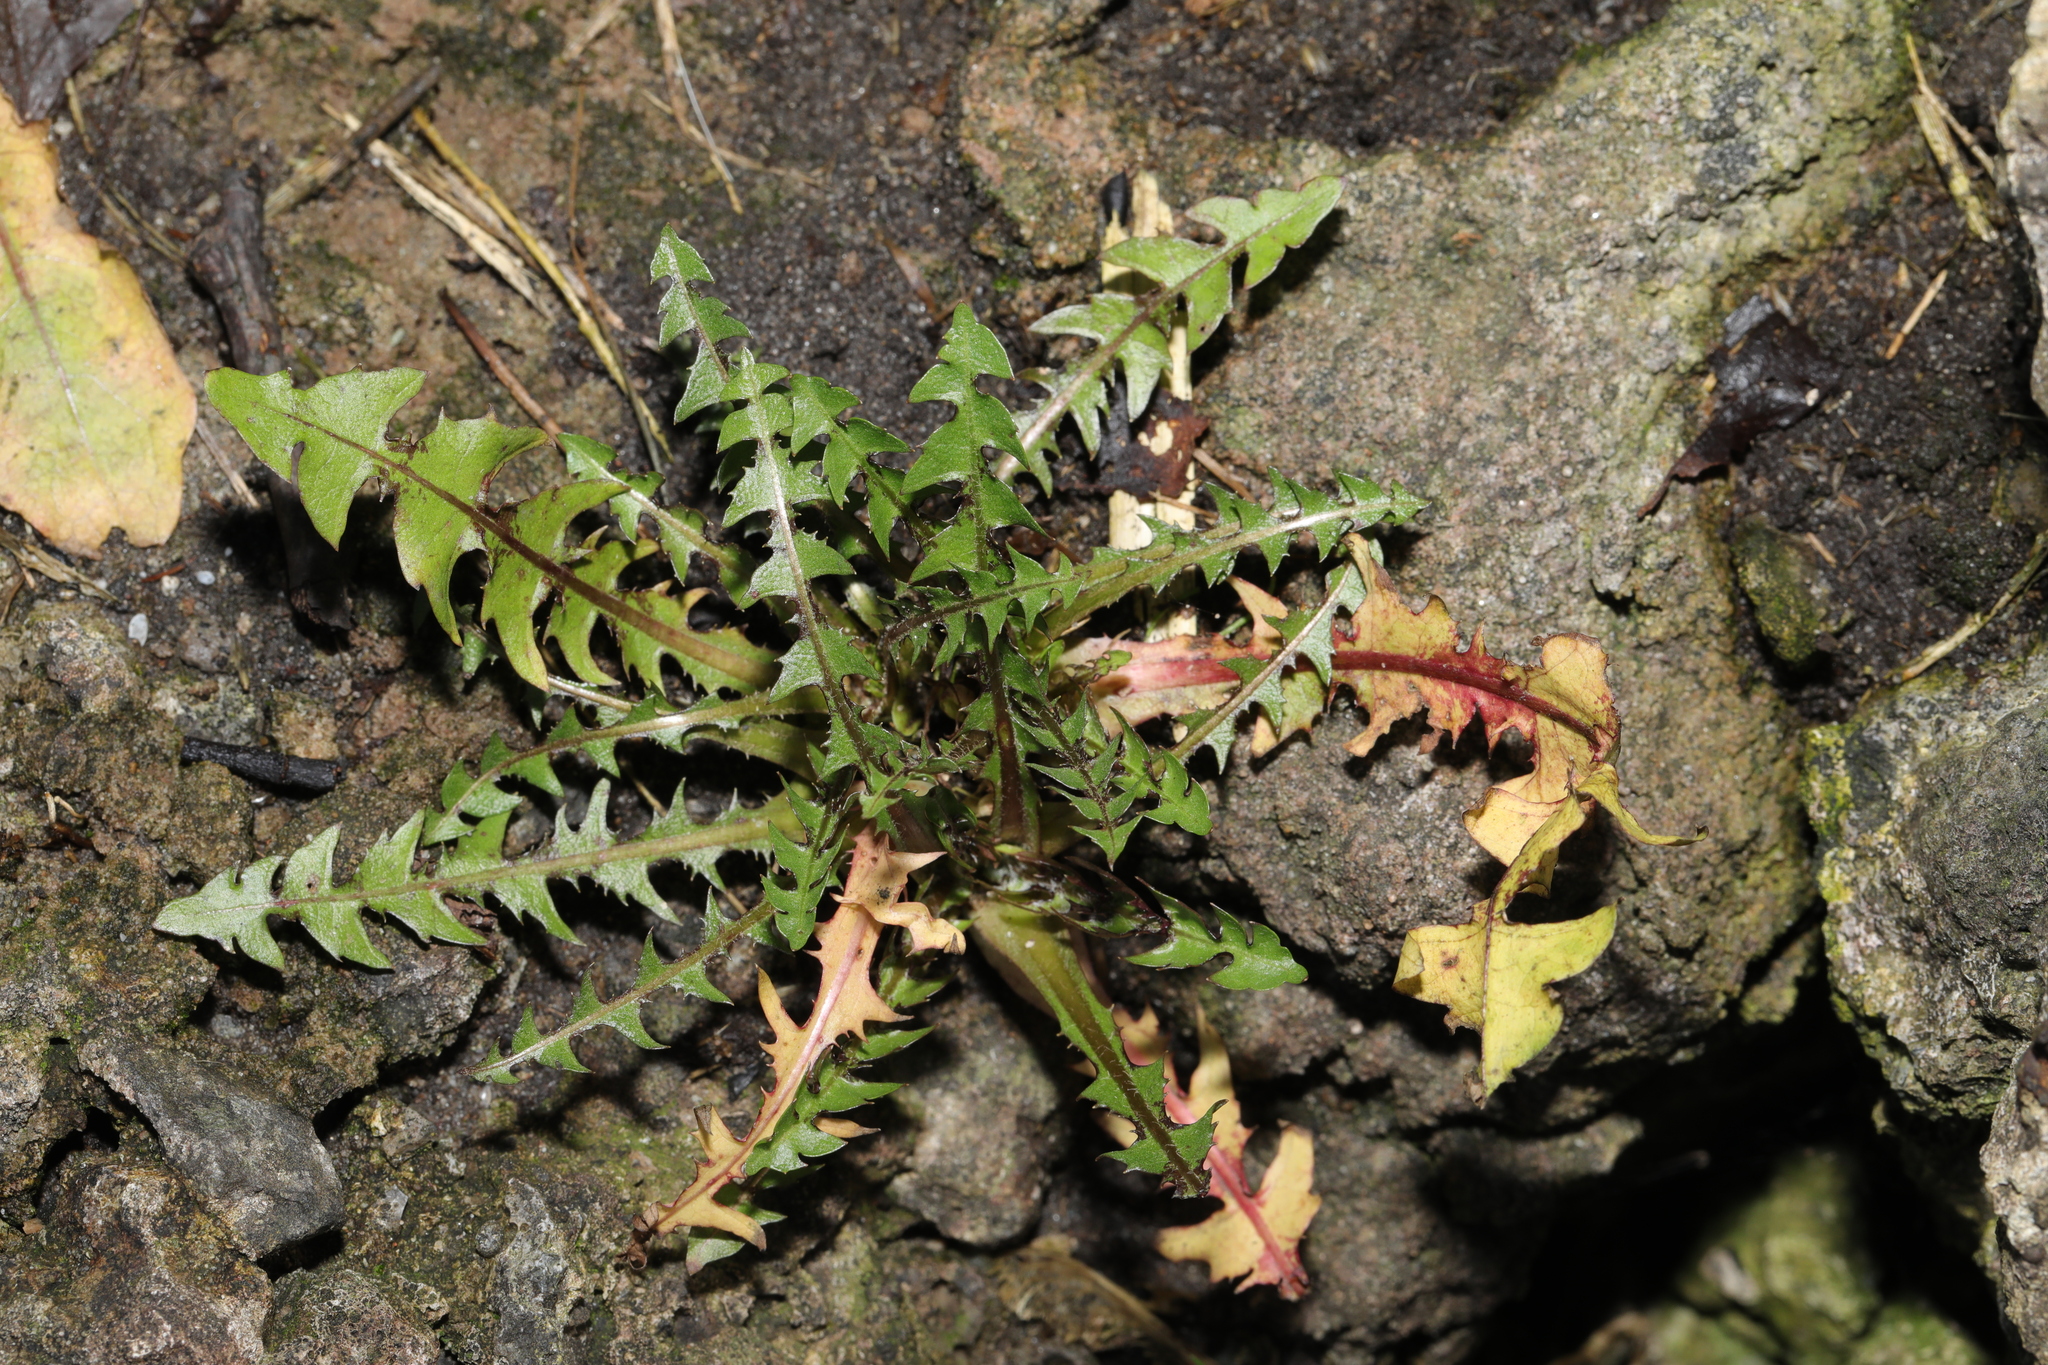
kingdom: Plantae
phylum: Tracheophyta
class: Magnoliopsida
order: Asterales
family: Asteraceae
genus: Taraxacum
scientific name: Taraxacum officinale
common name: Common dandelion
